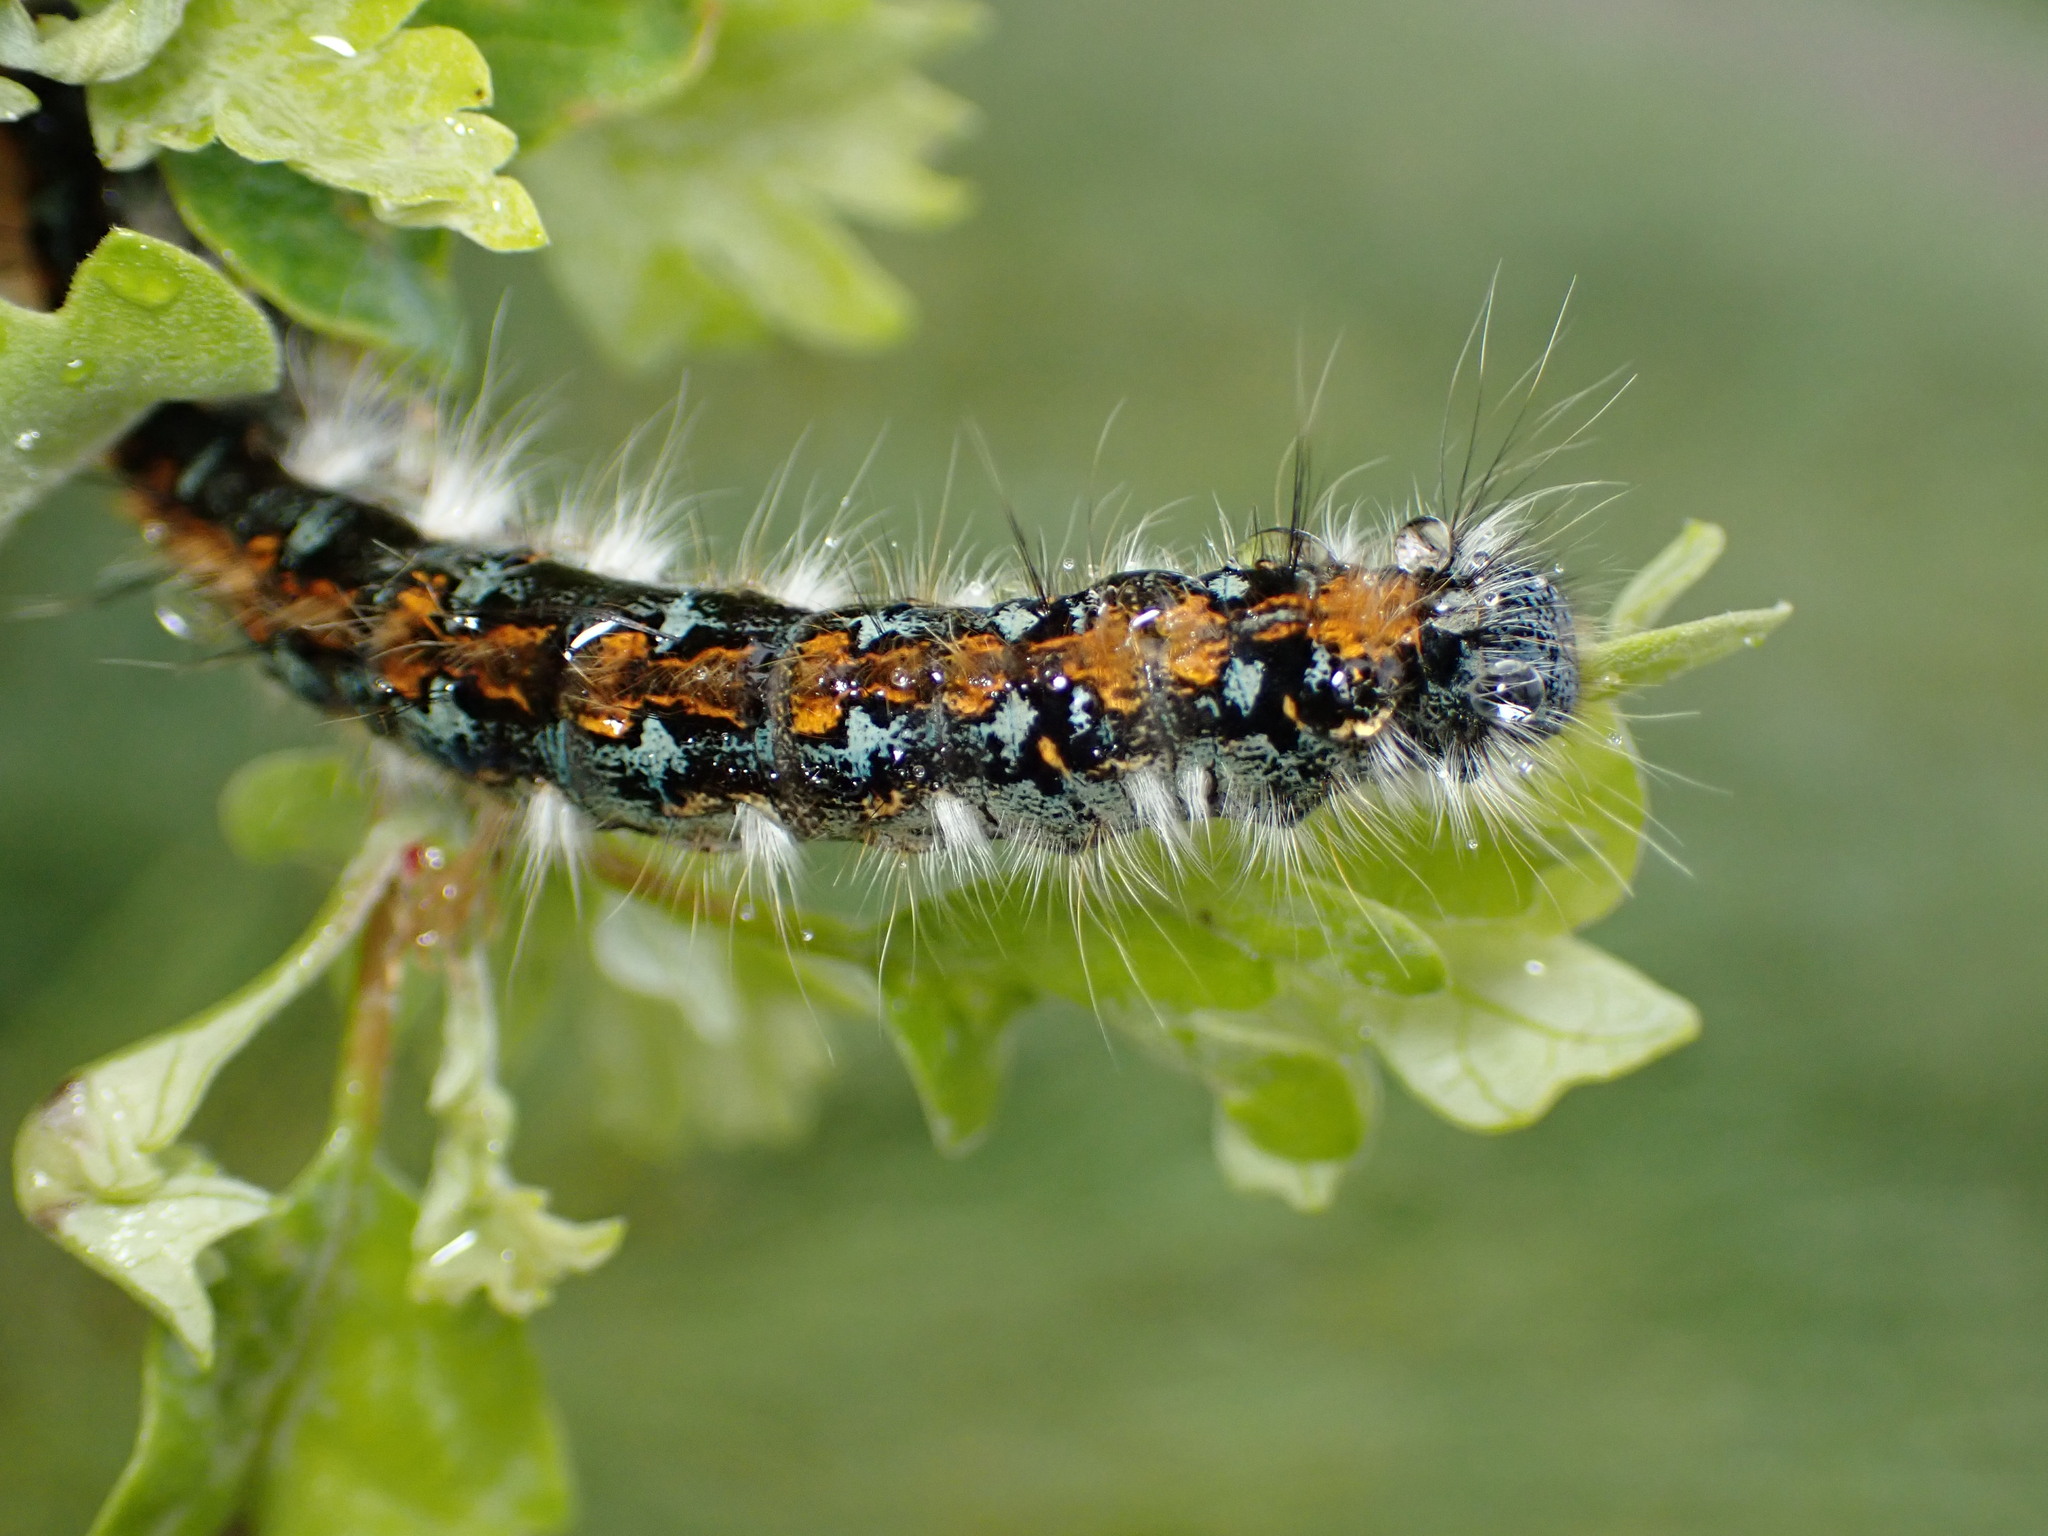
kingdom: Animalia
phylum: Arthropoda
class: Insecta
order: Lepidoptera
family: Lasiocampidae
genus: Malacosoma
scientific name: Malacosoma constricta
